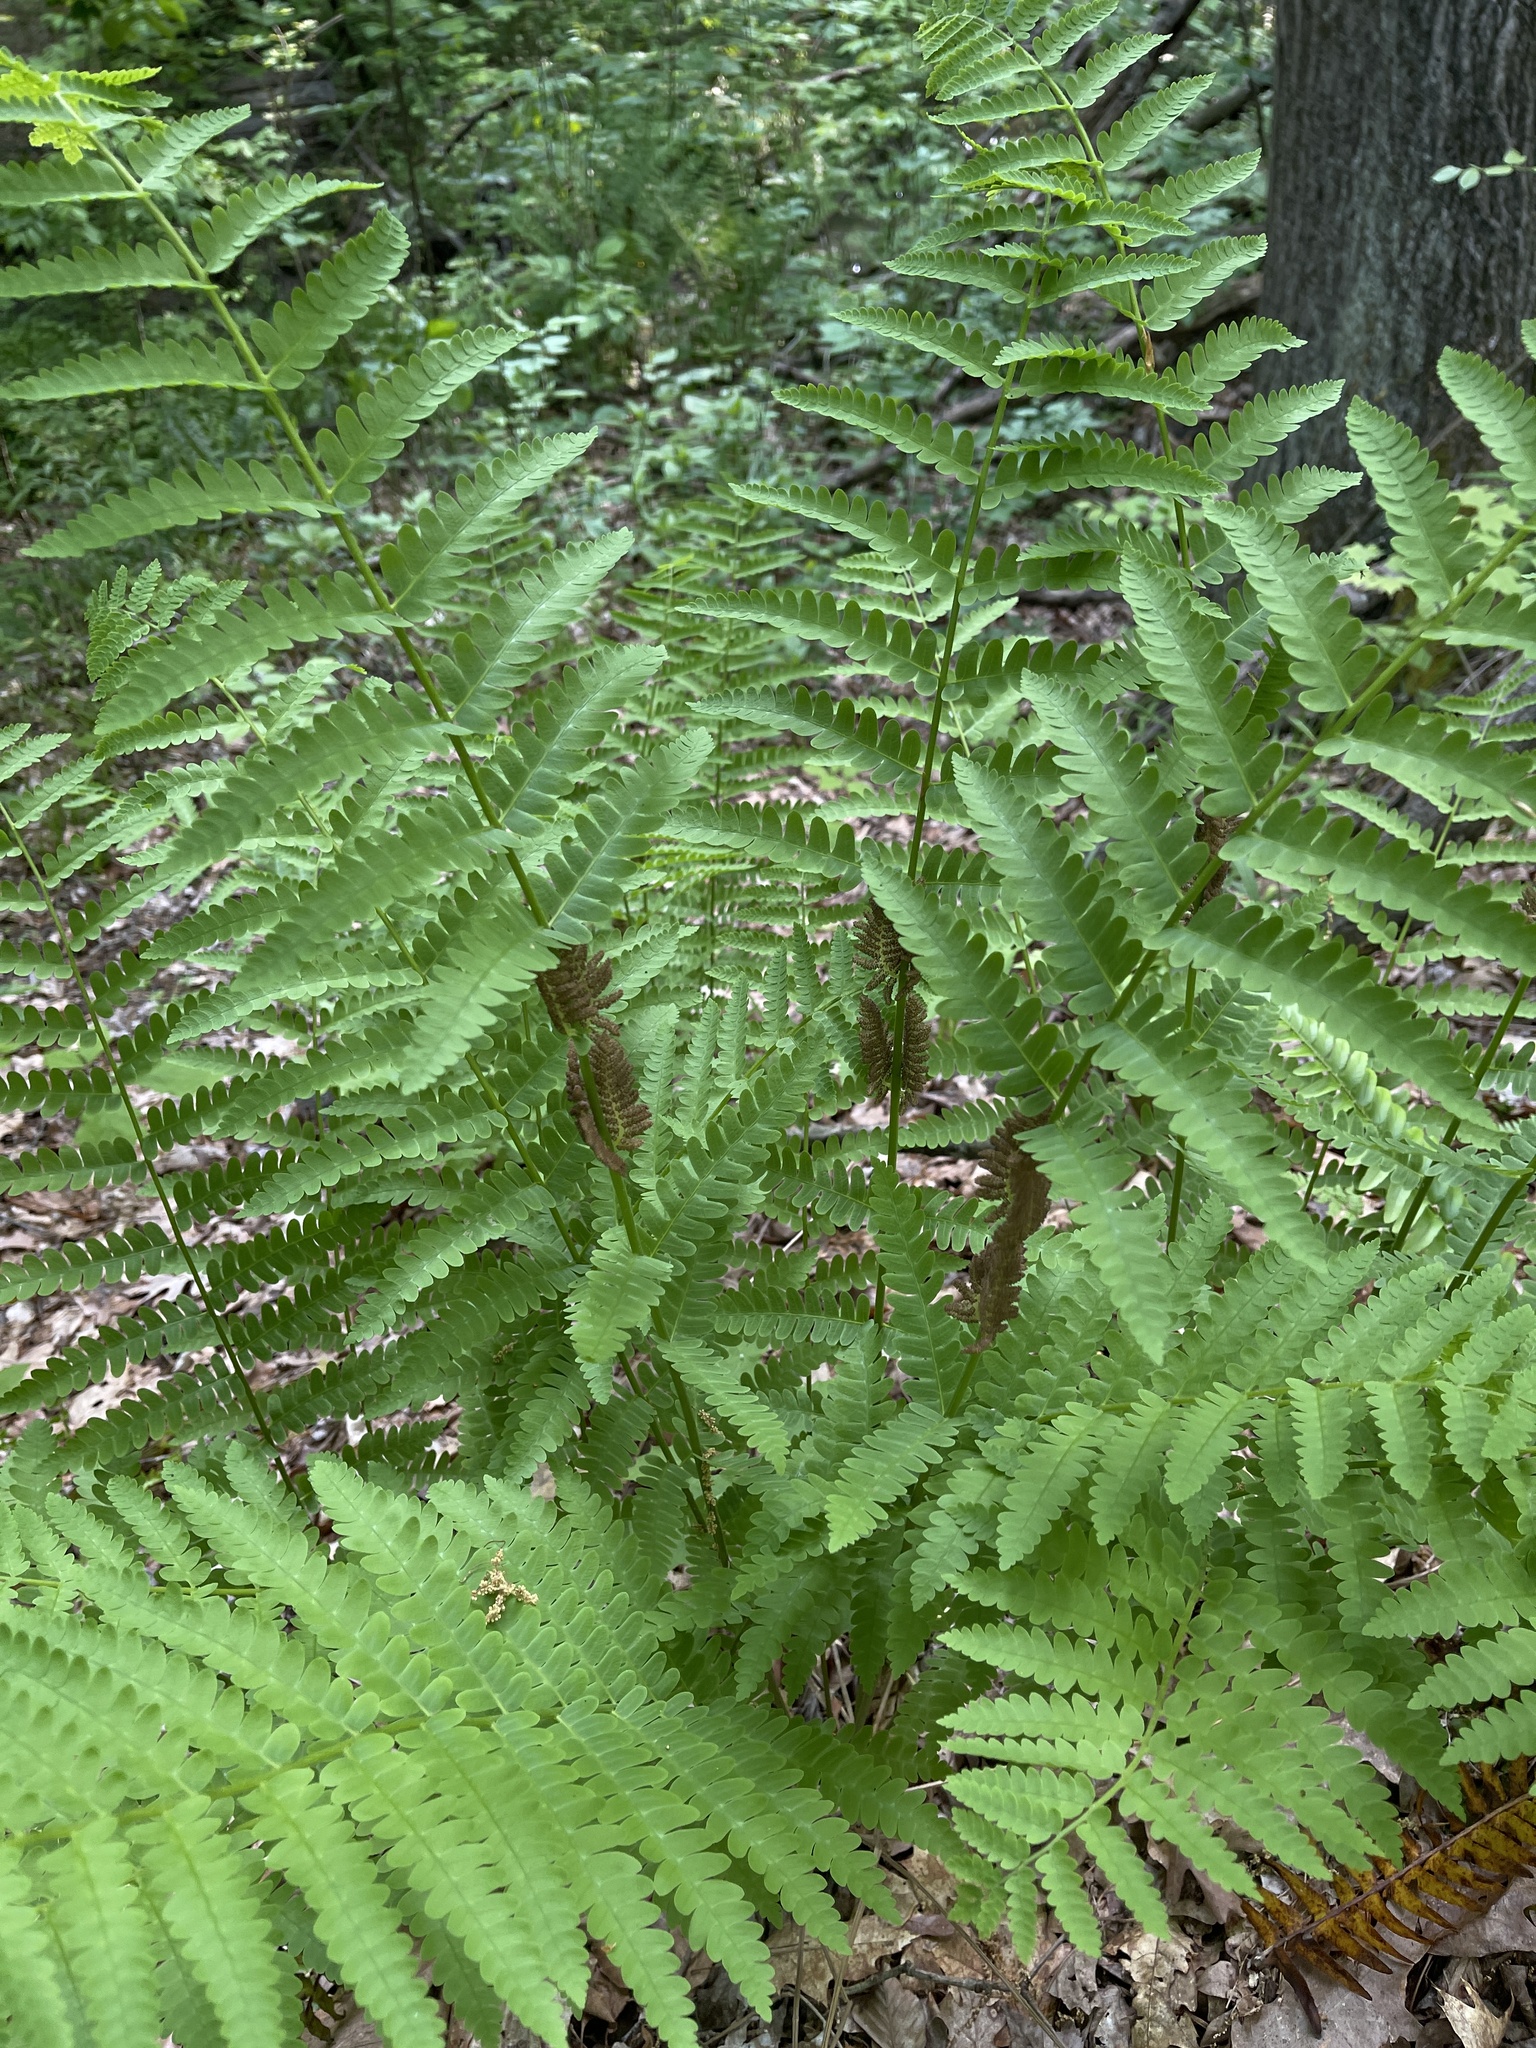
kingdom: Plantae
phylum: Tracheophyta
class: Polypodiopsida
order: Osmundales
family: Osmundaceae
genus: Claytosmunda
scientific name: Claytosmunda claytoniana
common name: Clayton's fern
